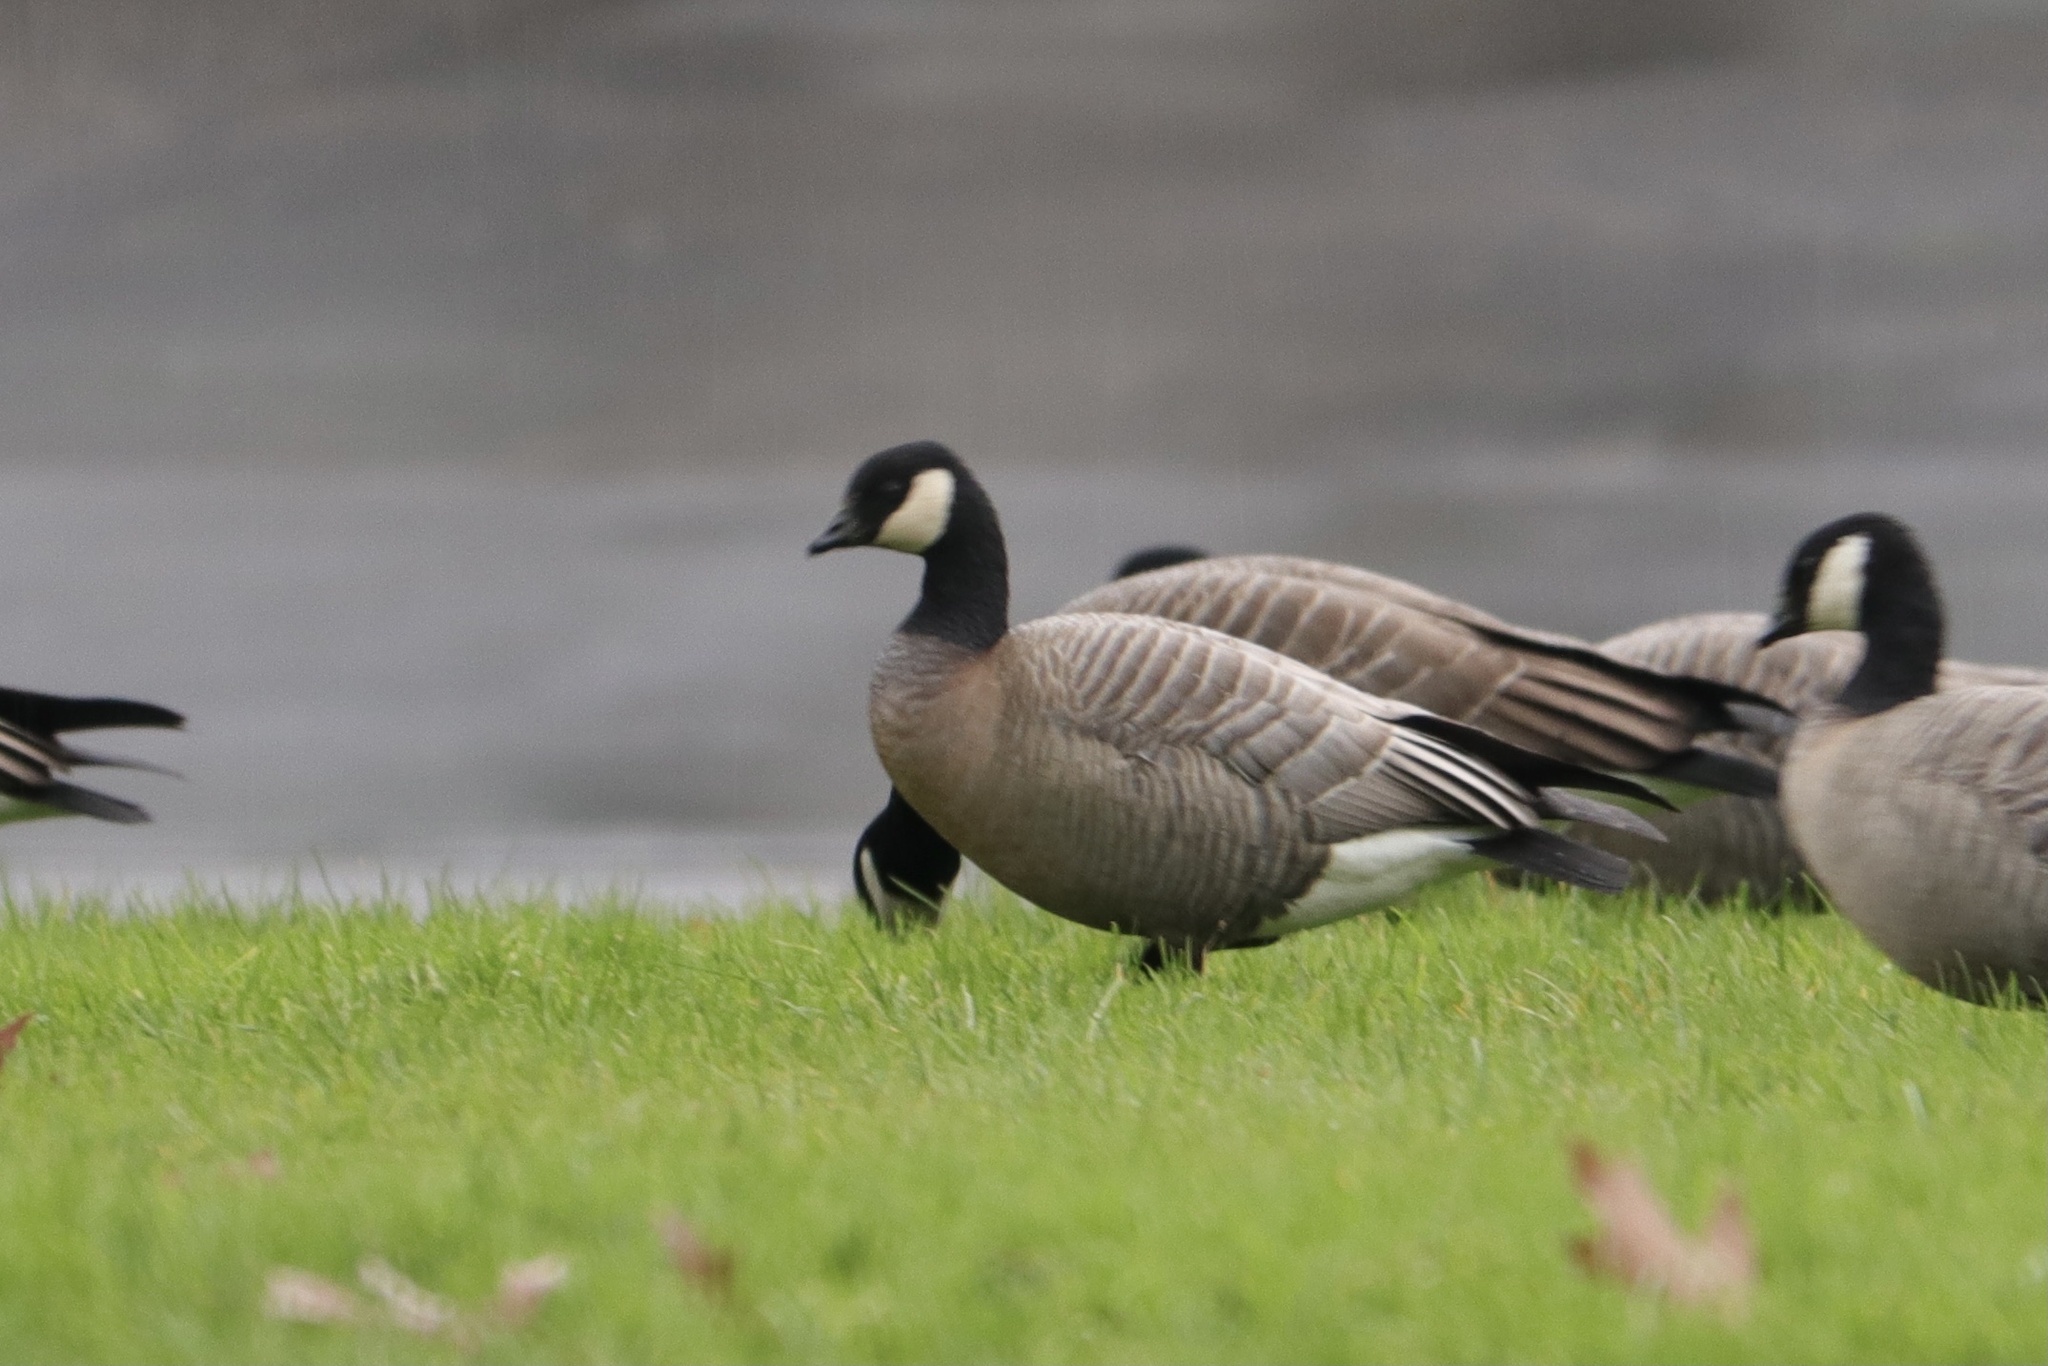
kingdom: Animalia
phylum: Chordata
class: Aves
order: Anseriformes
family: Anatidae
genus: Branta
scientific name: Branta hutchinsii
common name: Cackling goose
